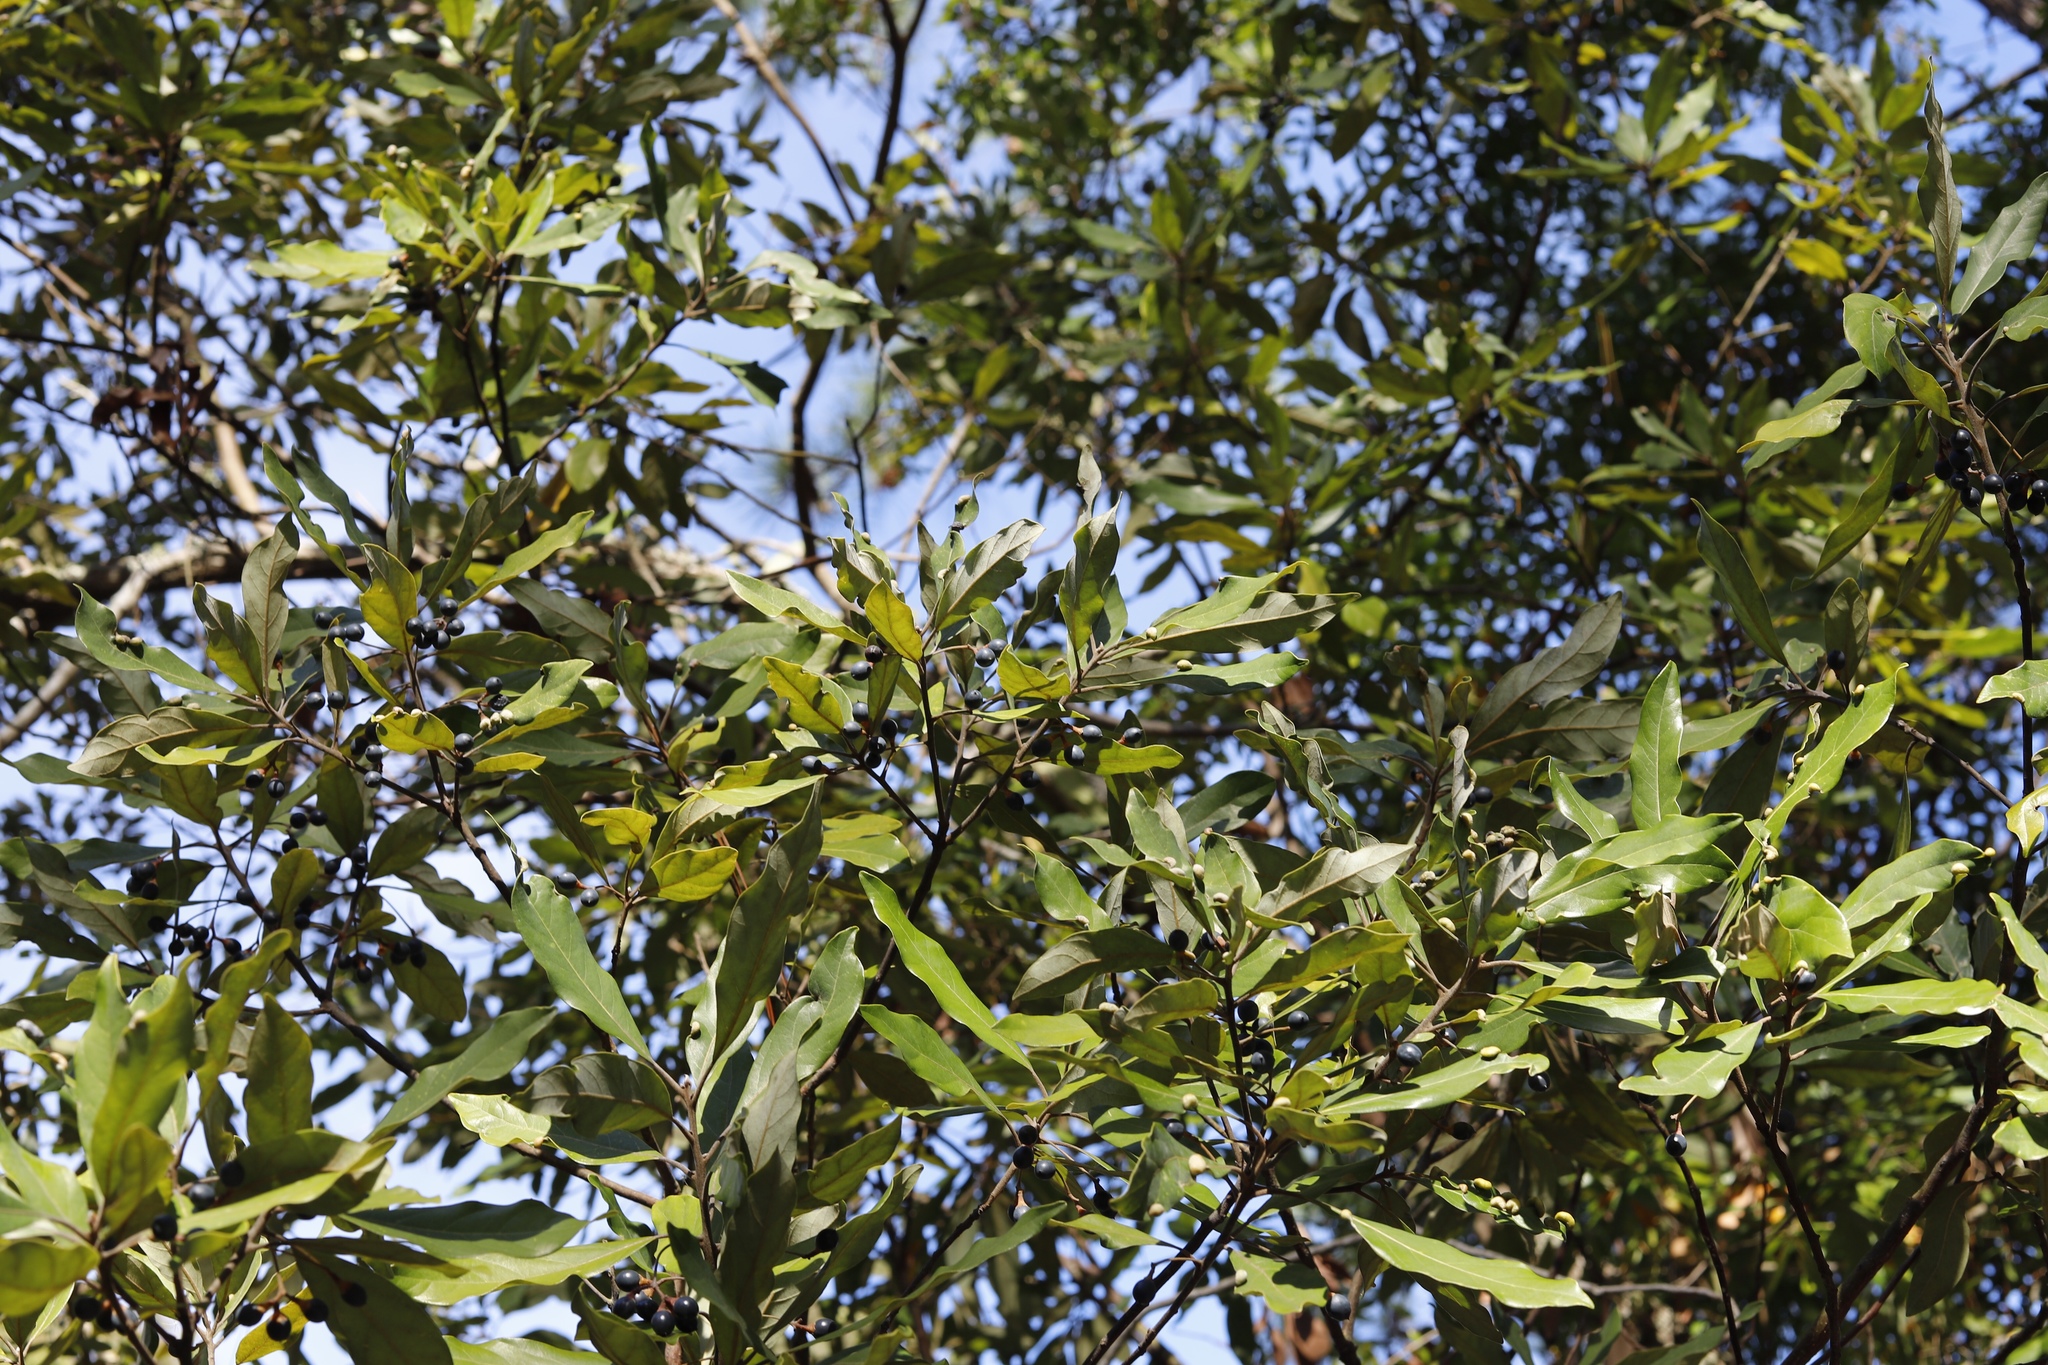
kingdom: Plantae
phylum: Tracheophyta
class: Magnoliopsida
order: Laurales
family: Lauraceae
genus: Persea
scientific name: Persea palustris
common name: Swampbay
